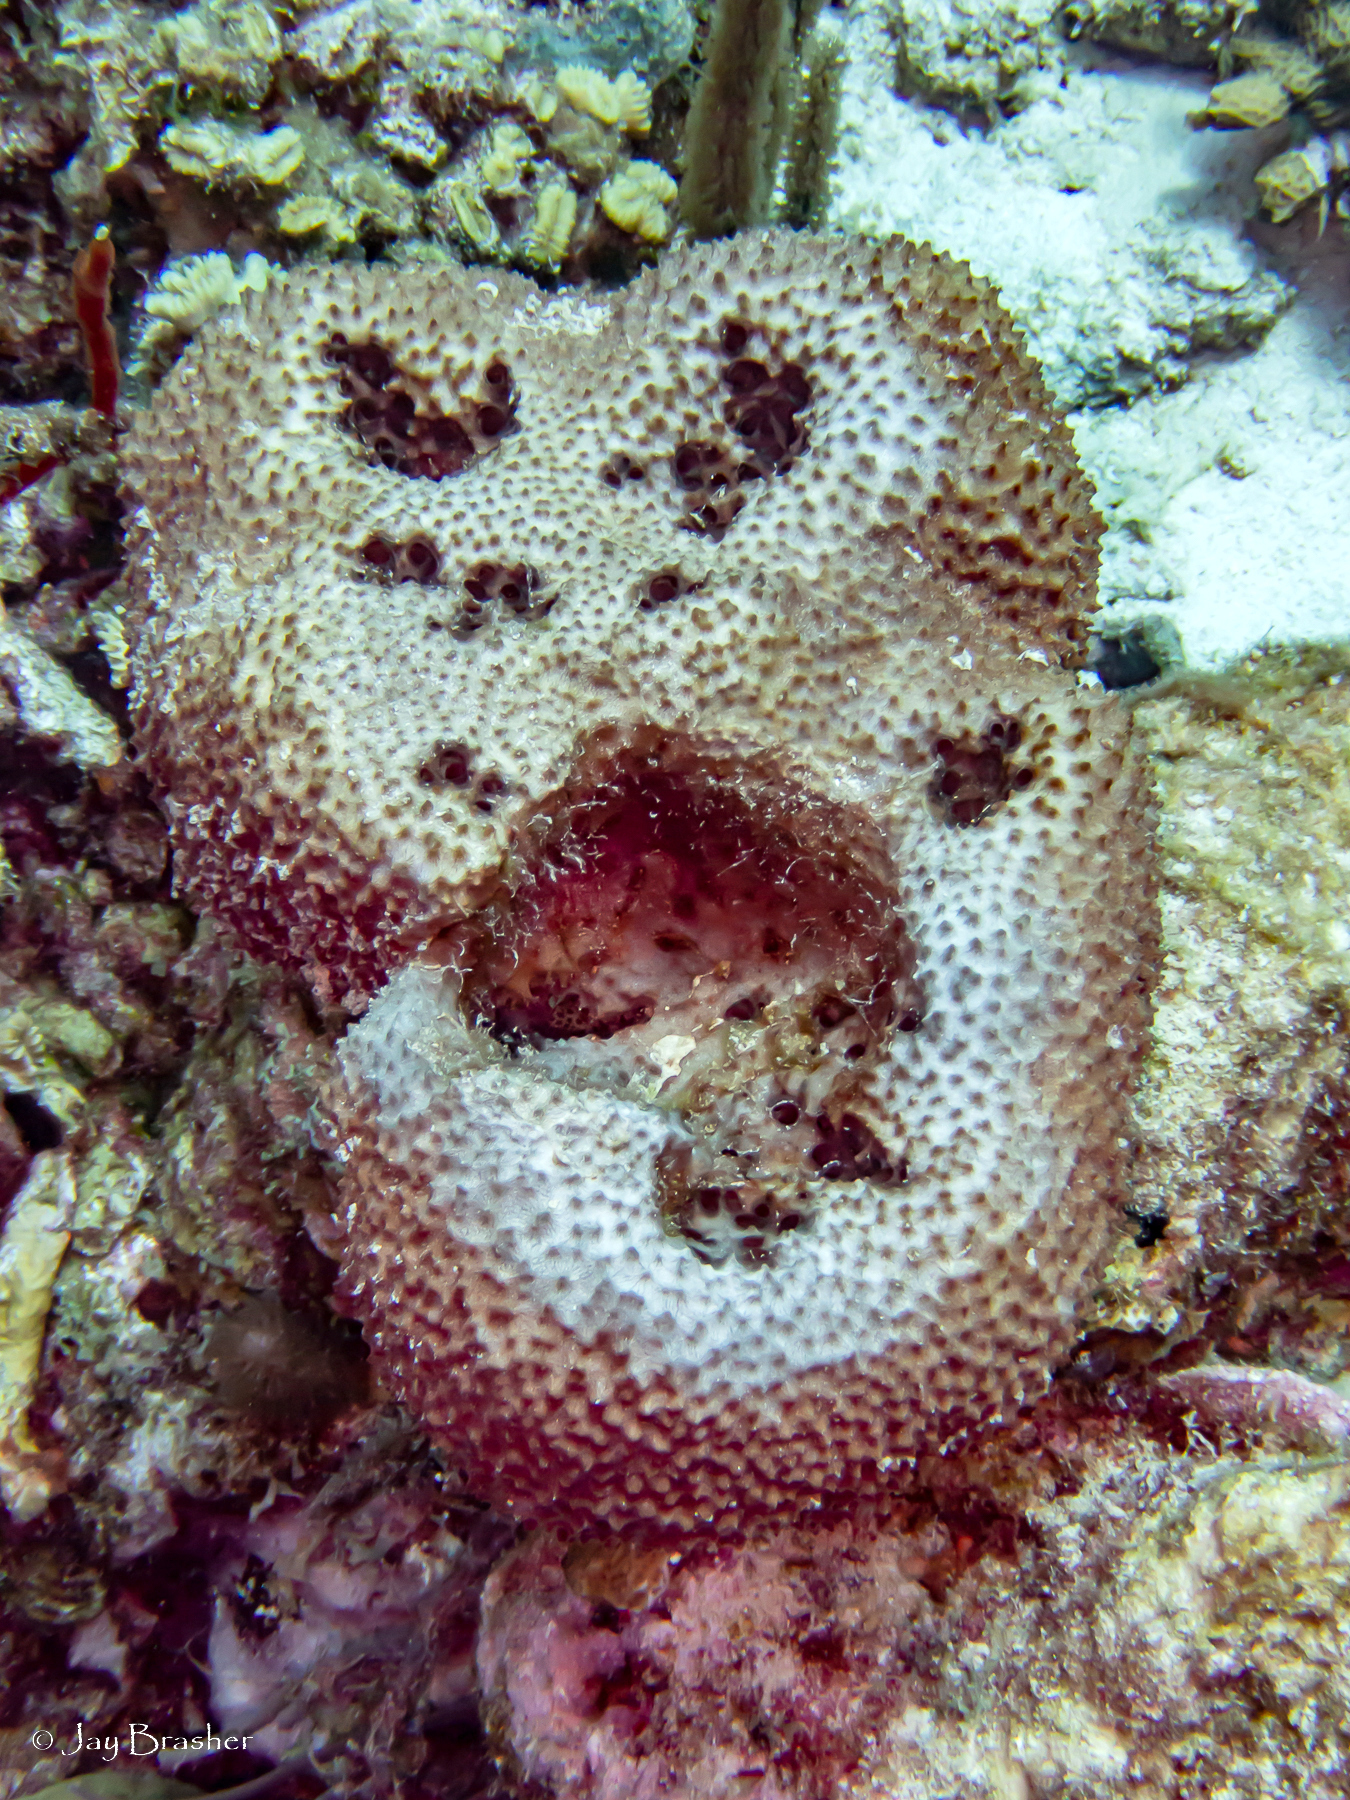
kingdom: Animalia
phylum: Porifera
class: Demospongiae
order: Dictyoceratida
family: Irciniidae
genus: Ircinia
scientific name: Ircinia felix
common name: Stinker sponge
